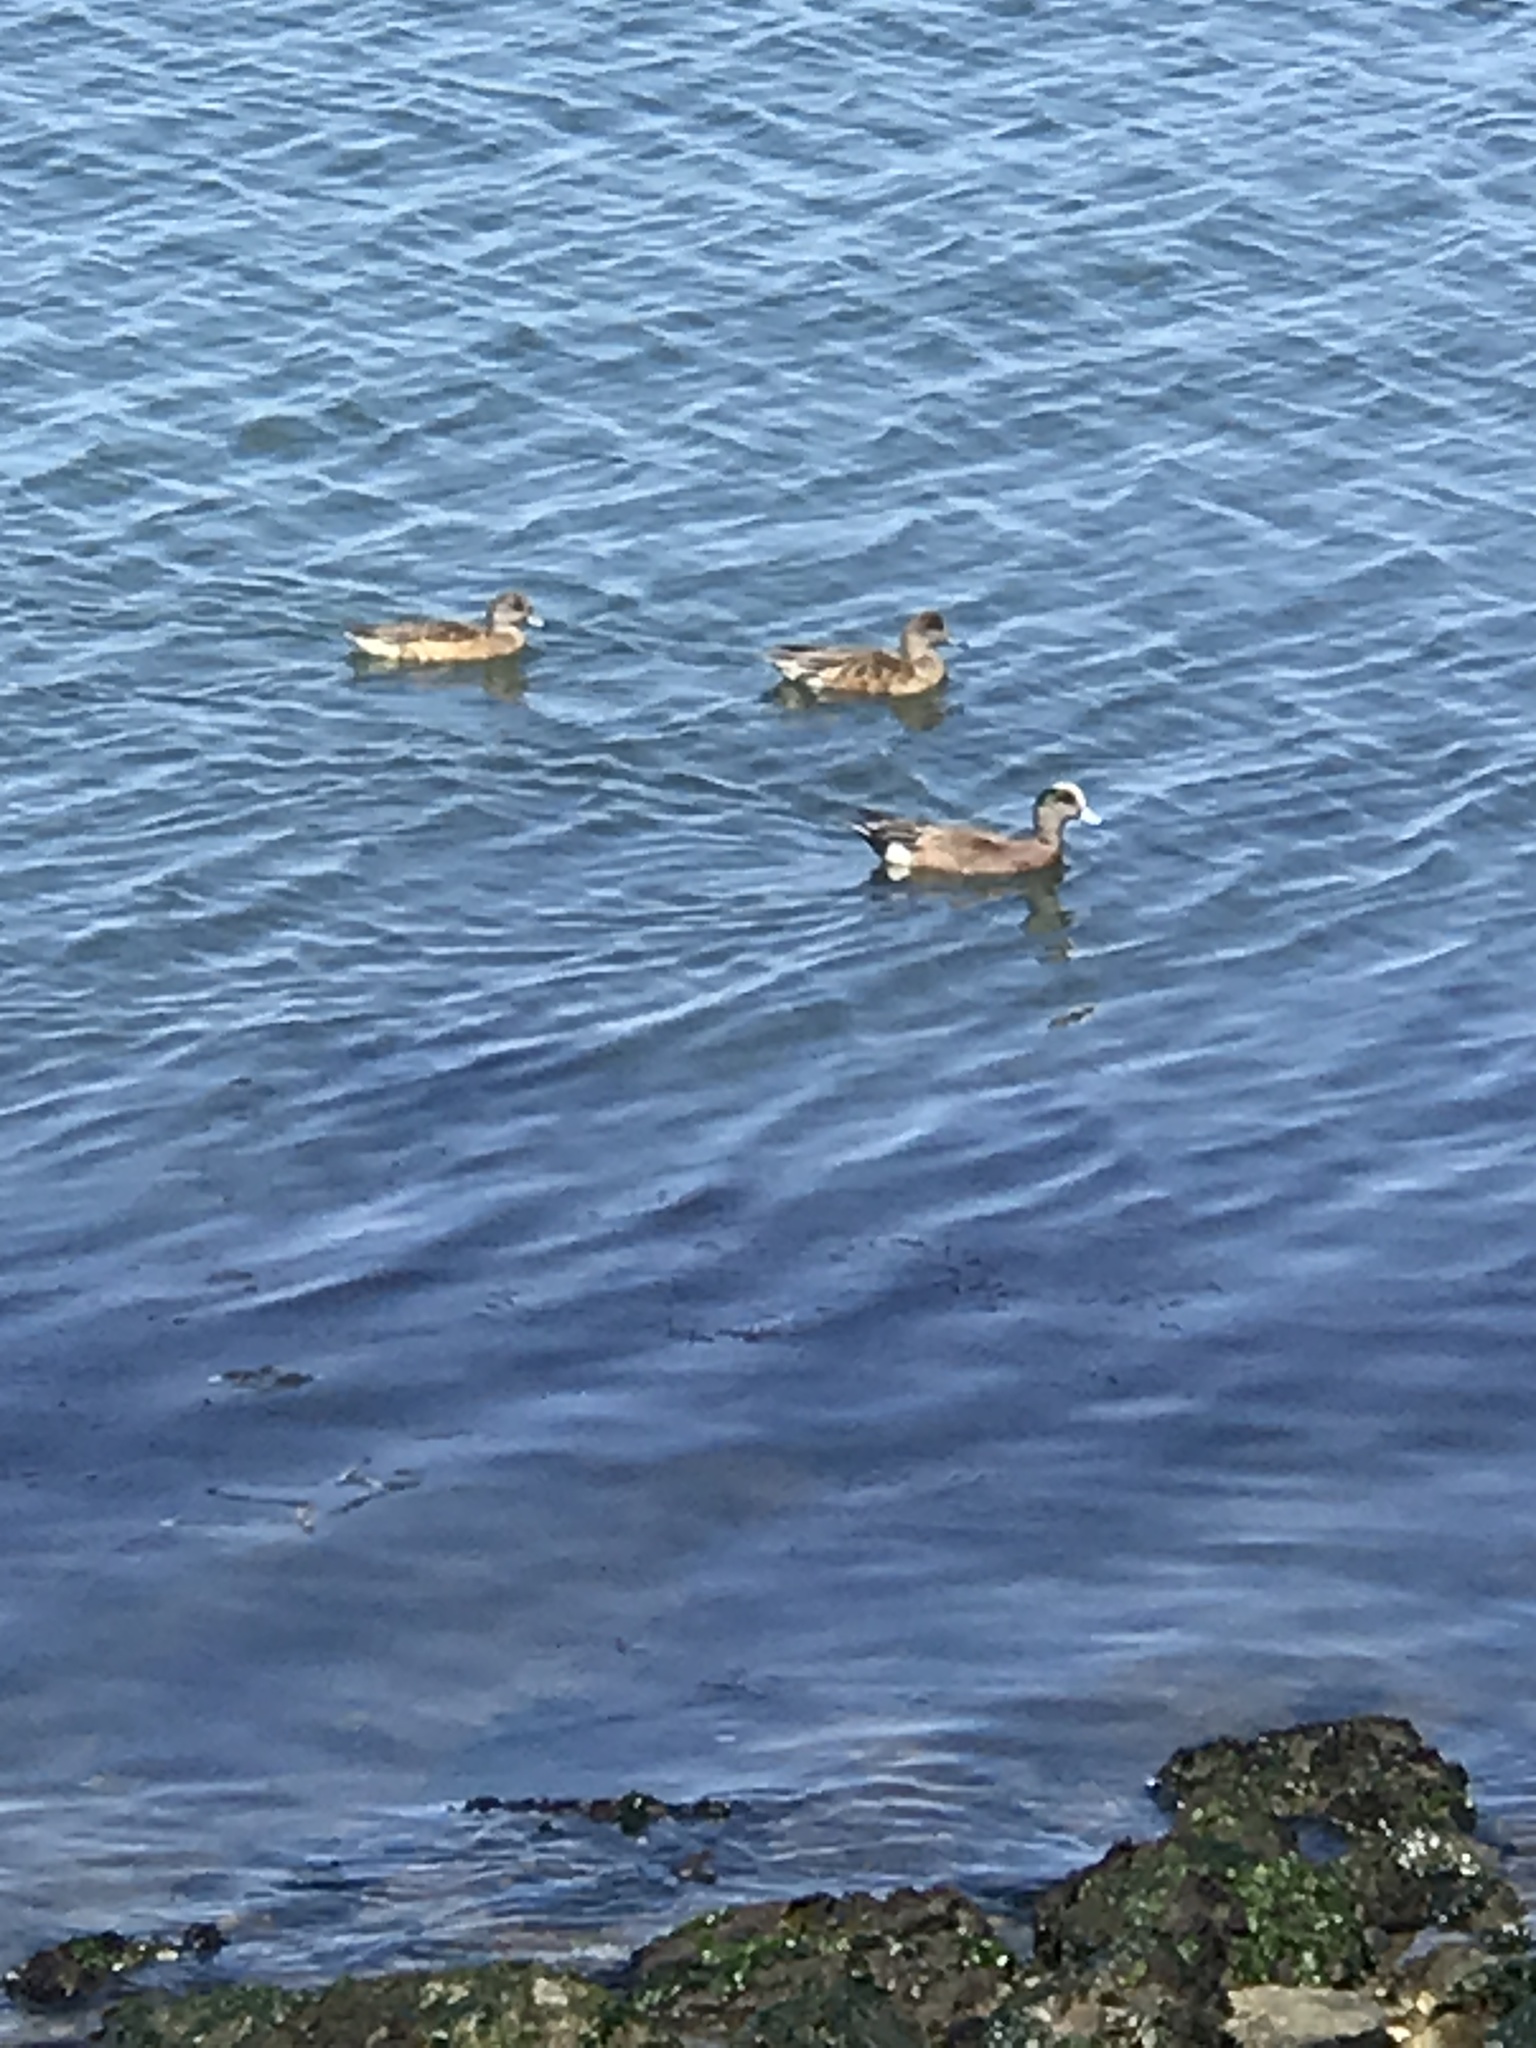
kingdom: Animalia
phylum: Chordata
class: Aves
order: Anseriformes
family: Anatidae
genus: Mareca
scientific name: Mareca americana
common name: American wigeon
